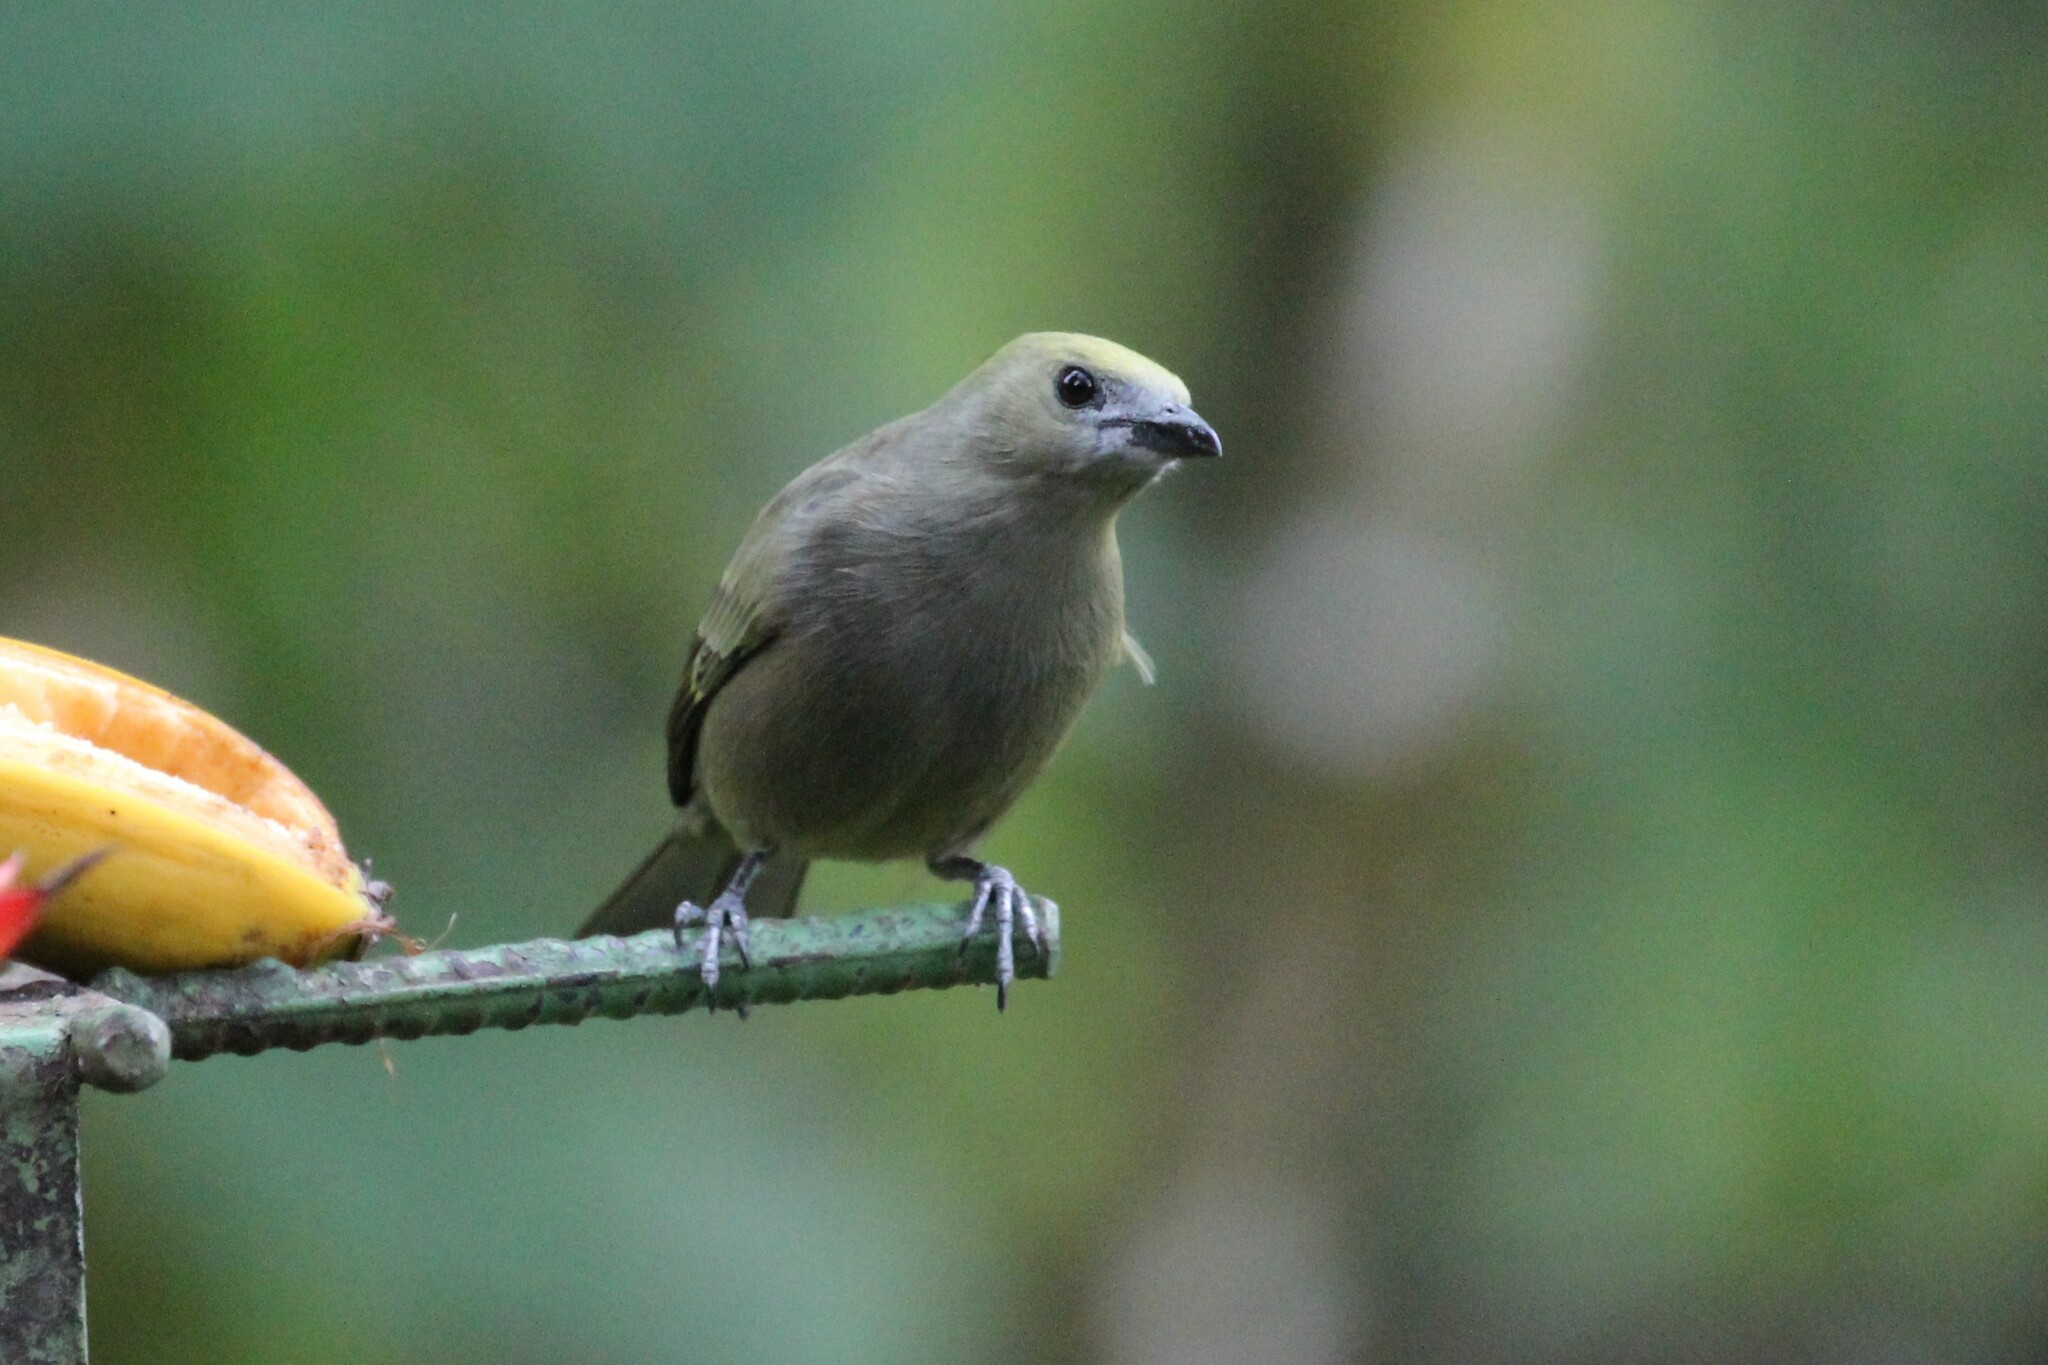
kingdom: Animalia
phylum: Chordata
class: Aves
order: Passeriformes
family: Thraupidae
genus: Thraupis
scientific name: Thraupis palmarum
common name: Palm tanager
